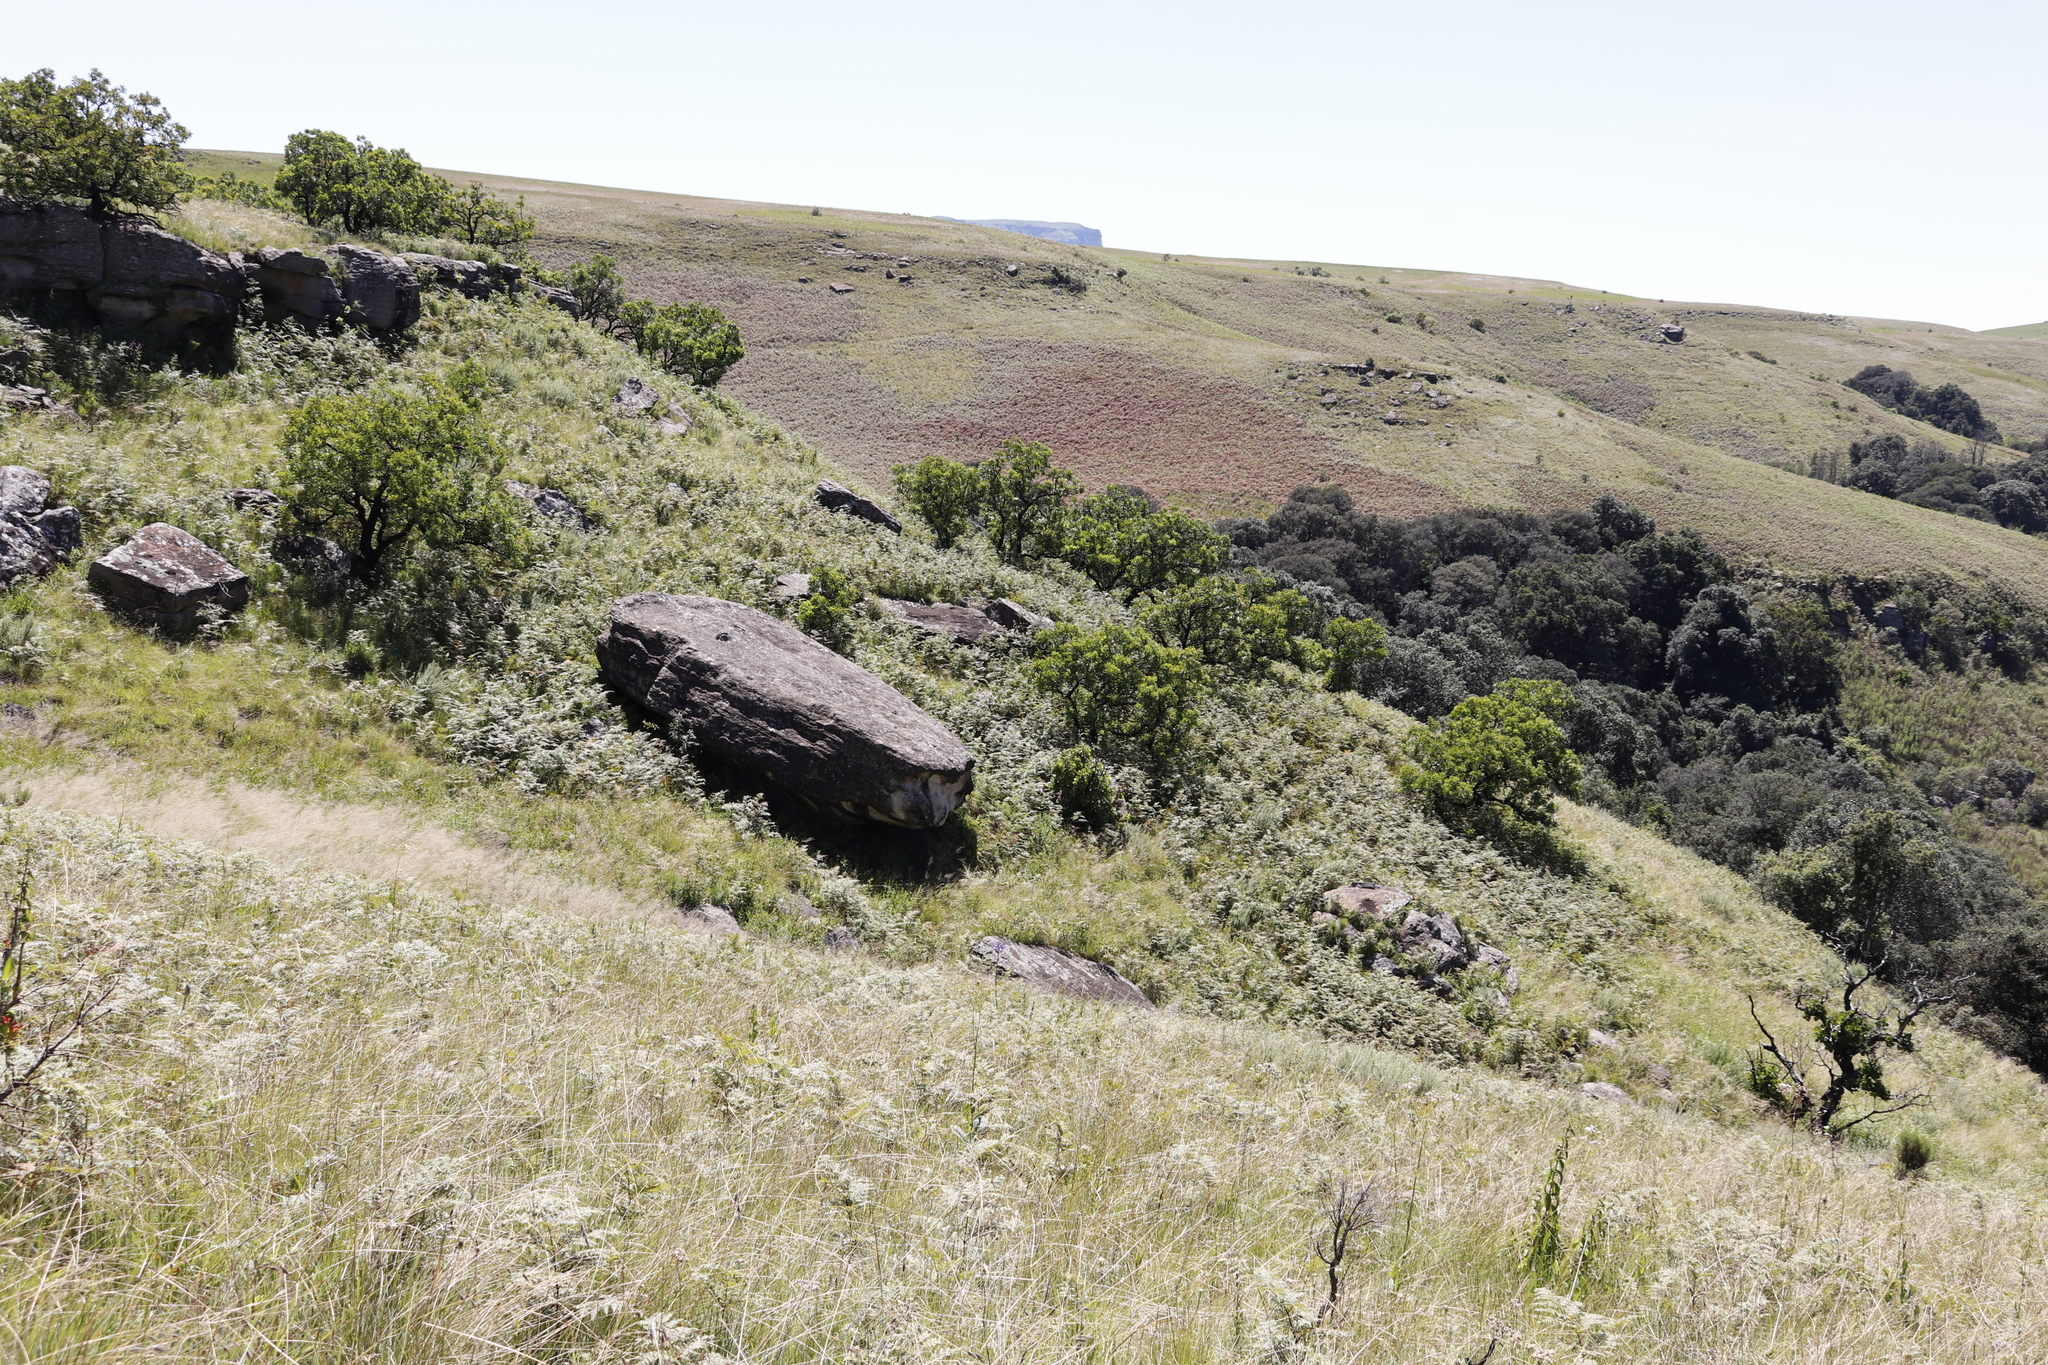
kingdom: Plantae
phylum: Tracheophyta
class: Magnoliopsida
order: Proteales
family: Proteaceae
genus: Protea
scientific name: Protea caffra
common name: Common sugarbush
